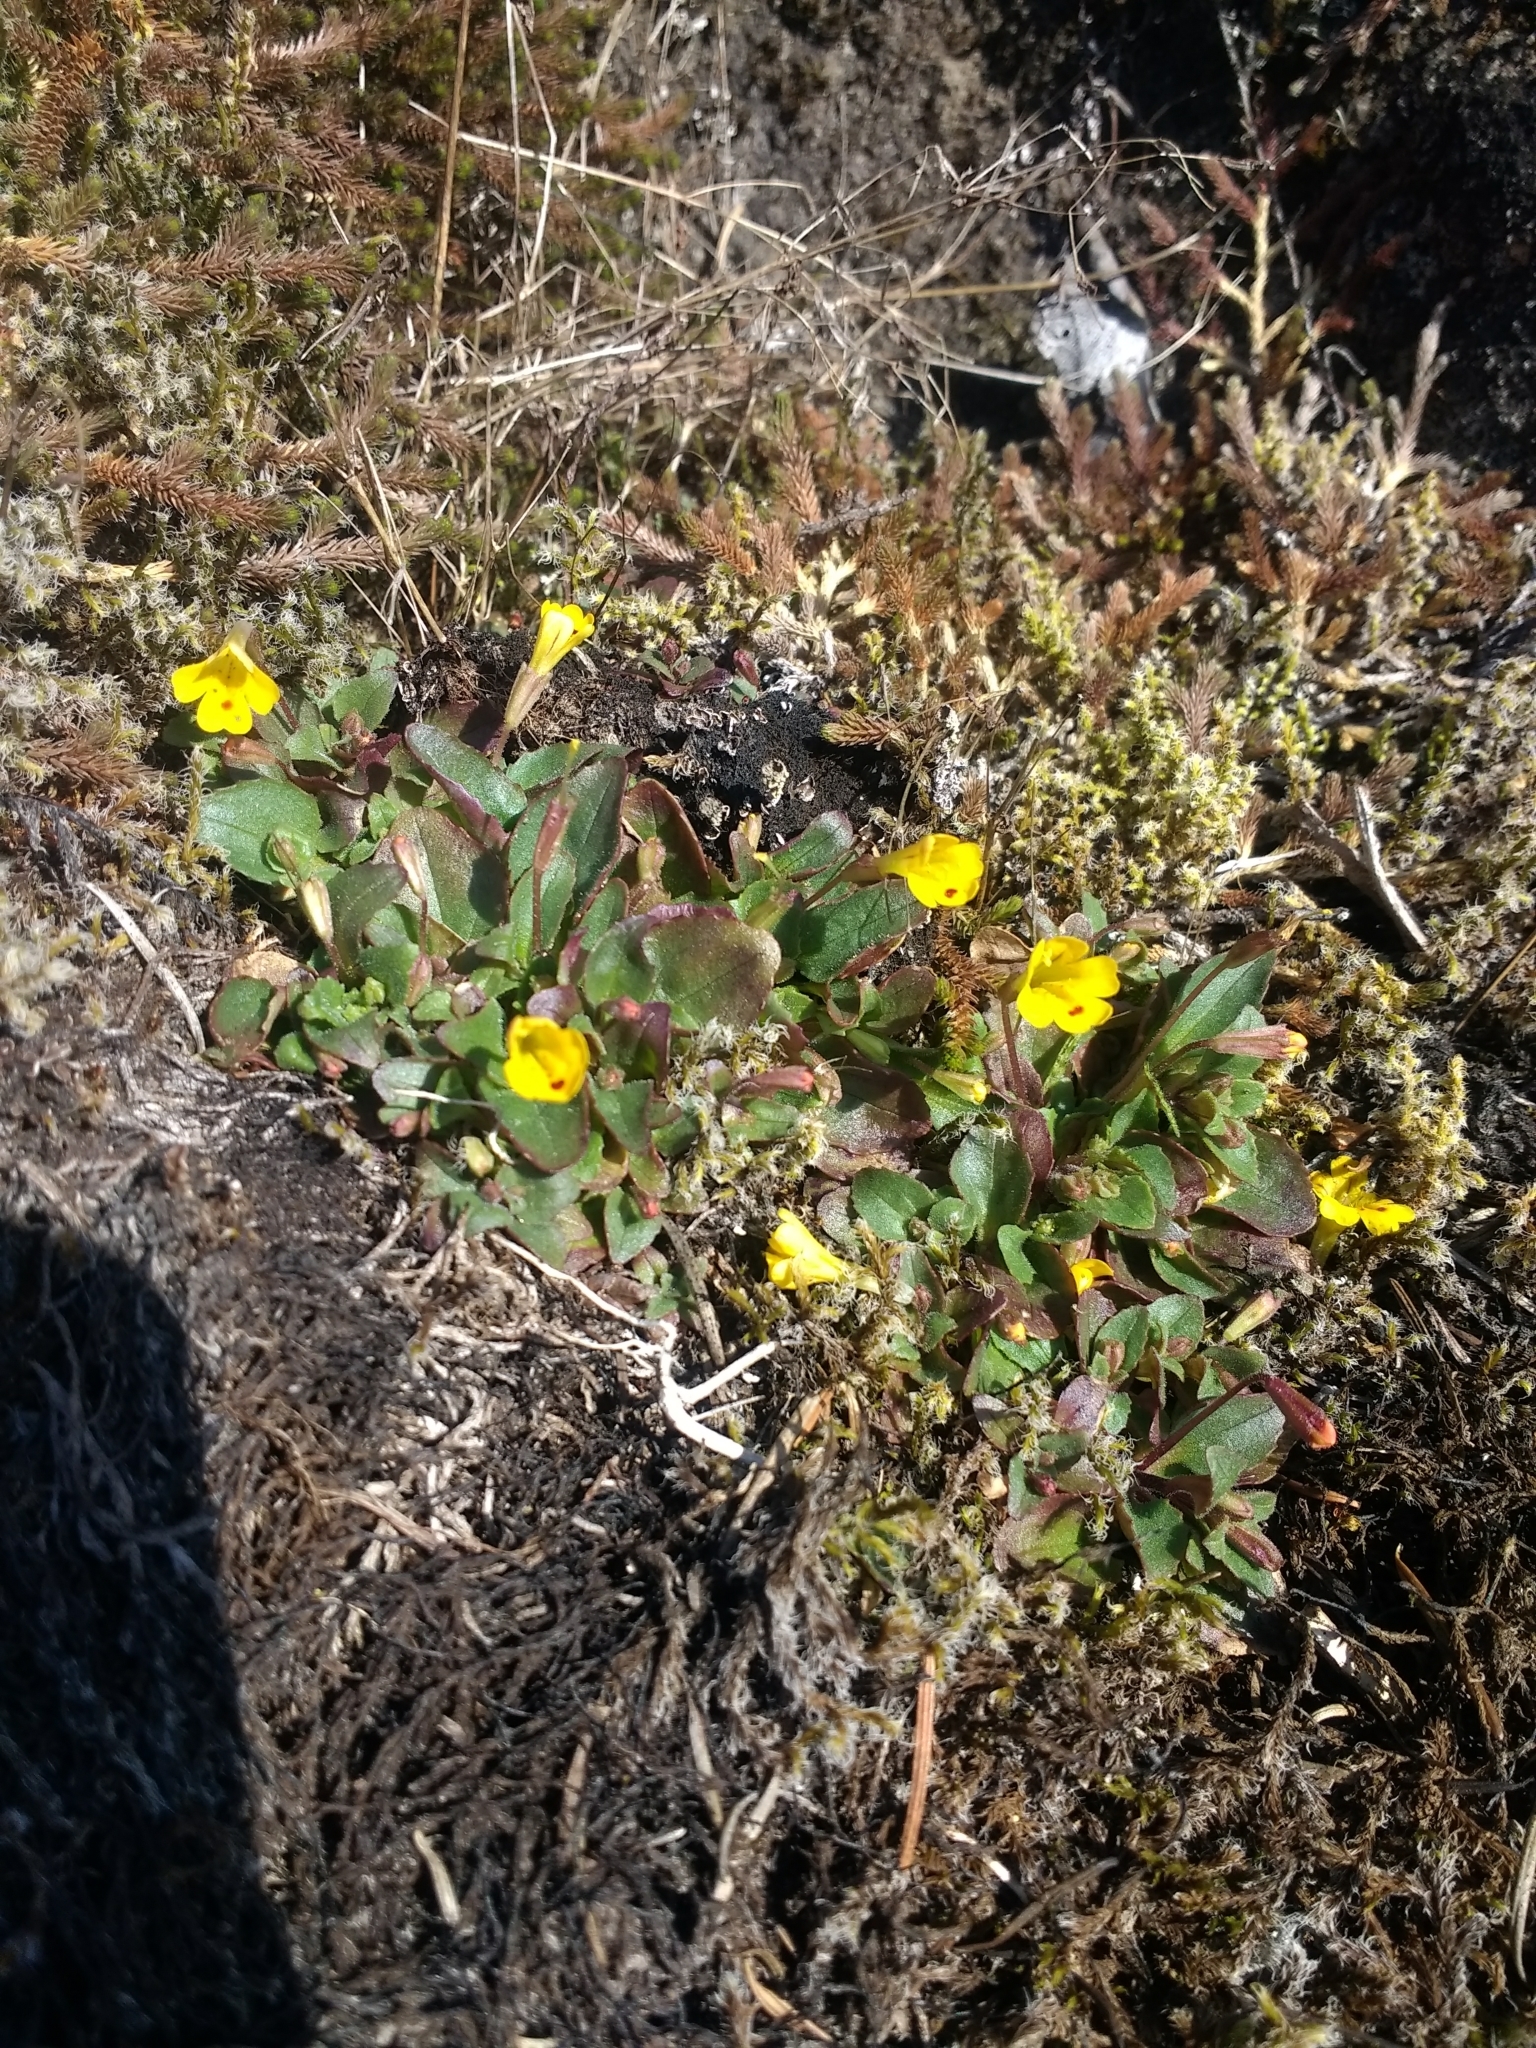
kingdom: Plantae
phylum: Tracheophyta
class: Magnoliopsida
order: Lamiales
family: Phrymaceae
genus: Erythranthe
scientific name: Erythranthe alsinoides
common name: Chickweed monkeyflower
